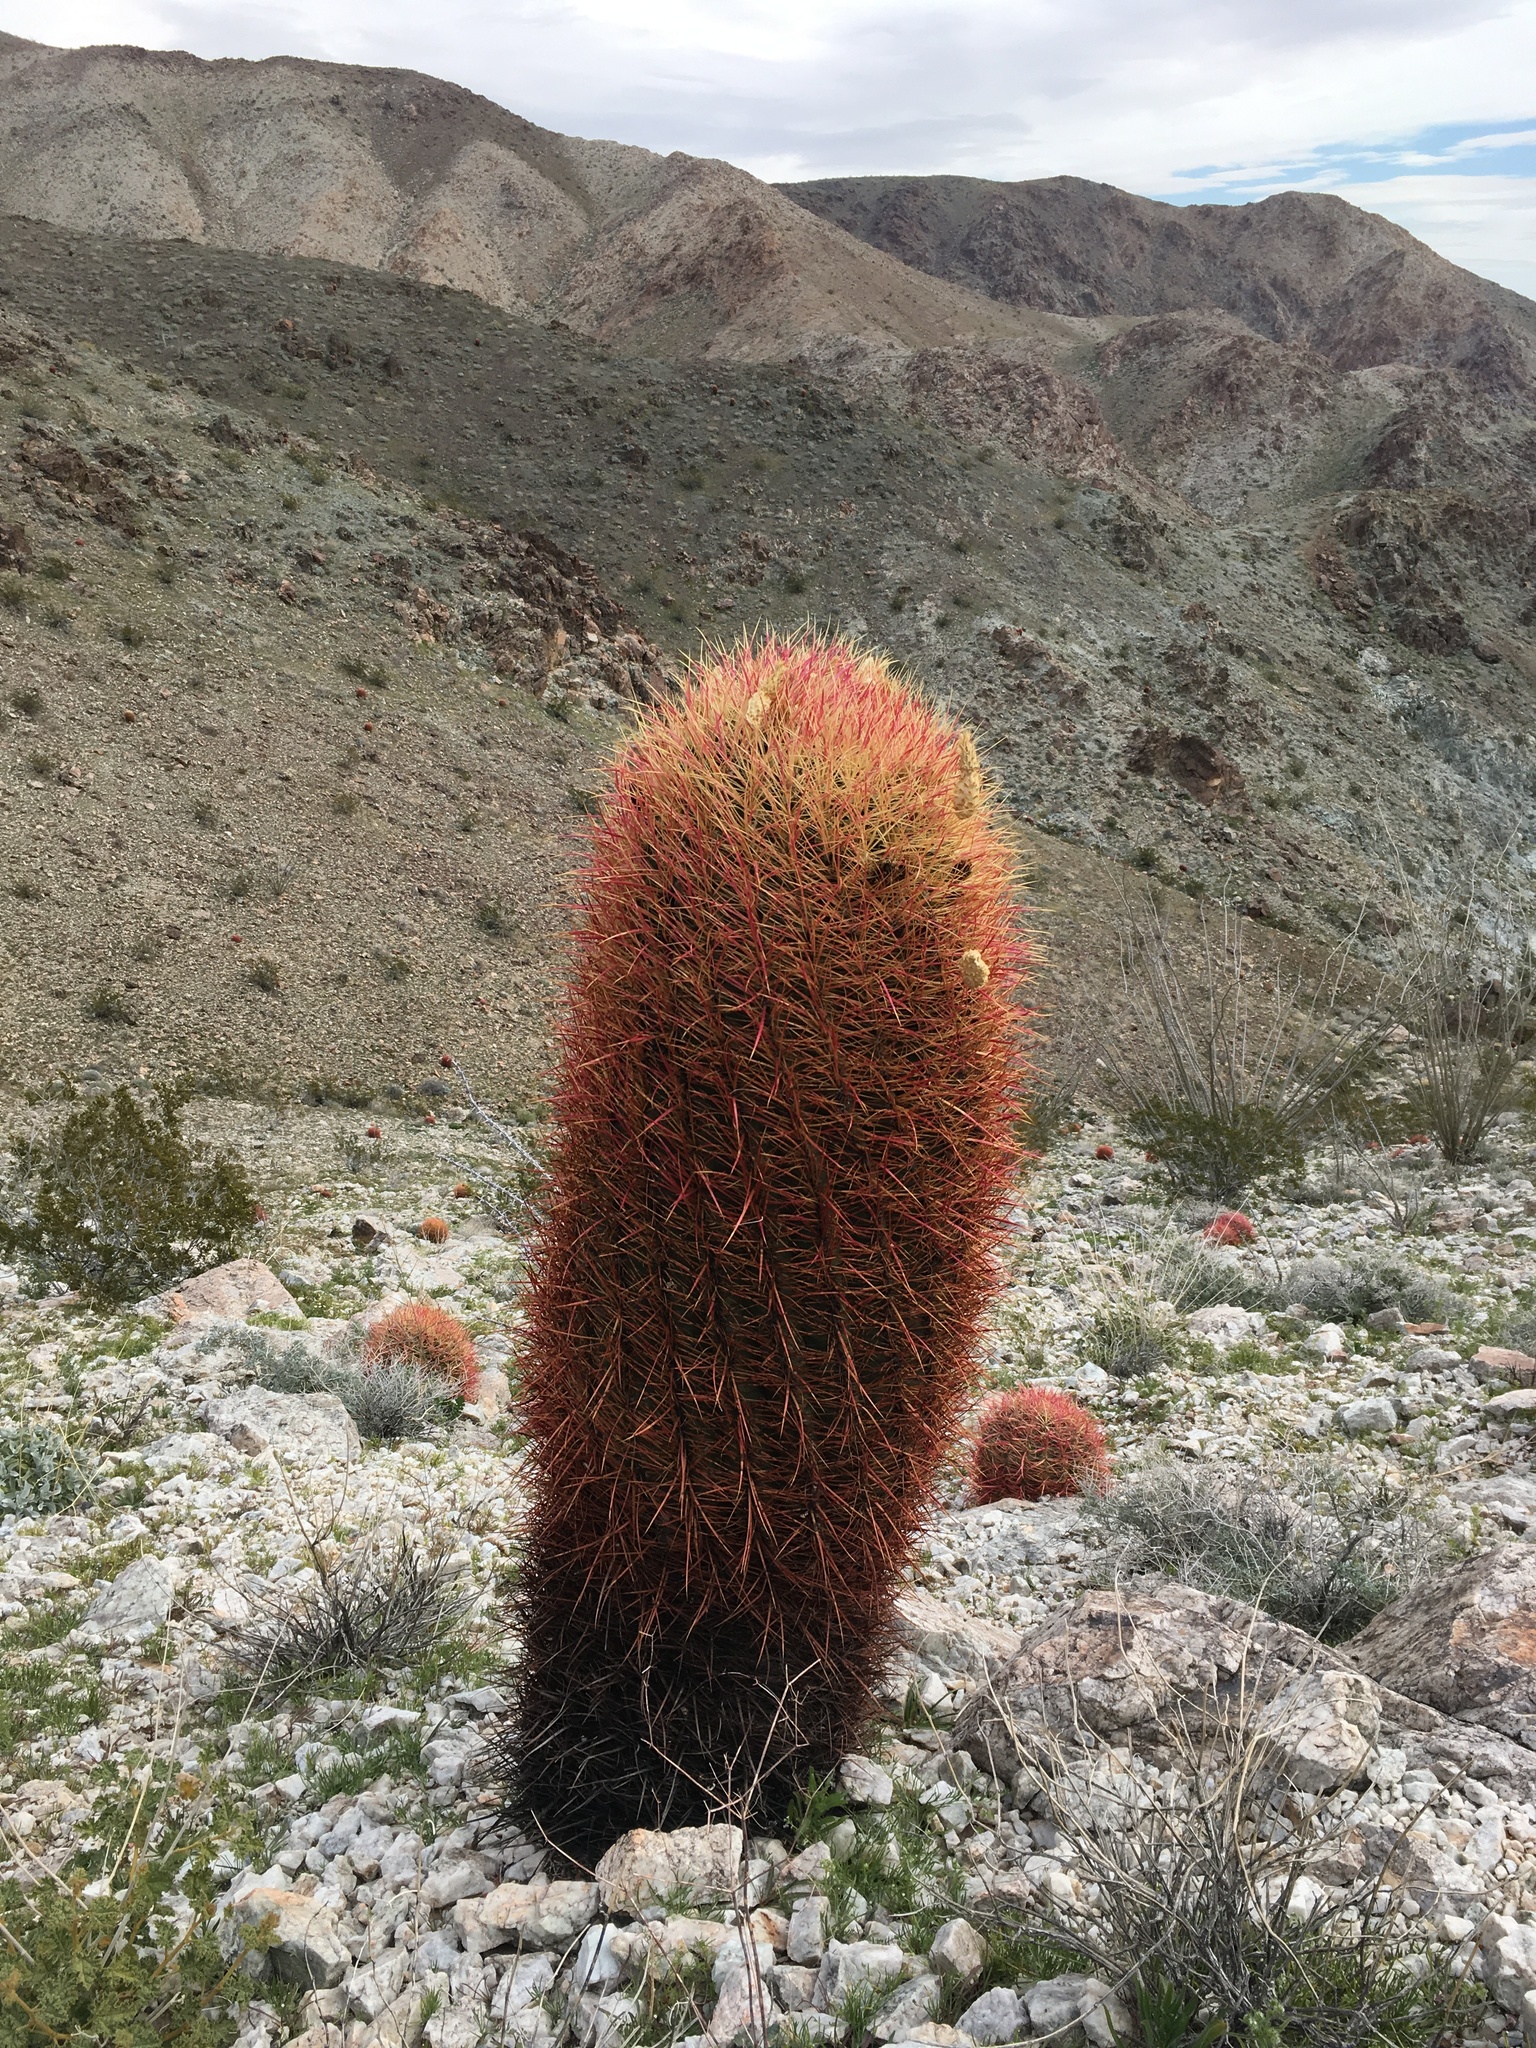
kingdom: Plantae
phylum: Tracheophyta
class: Magnoliopsida
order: Caryophyllales
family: Cactaceae
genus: Ferocactus
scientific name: Ferocactus cylindraceus
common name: California barrel cactus
